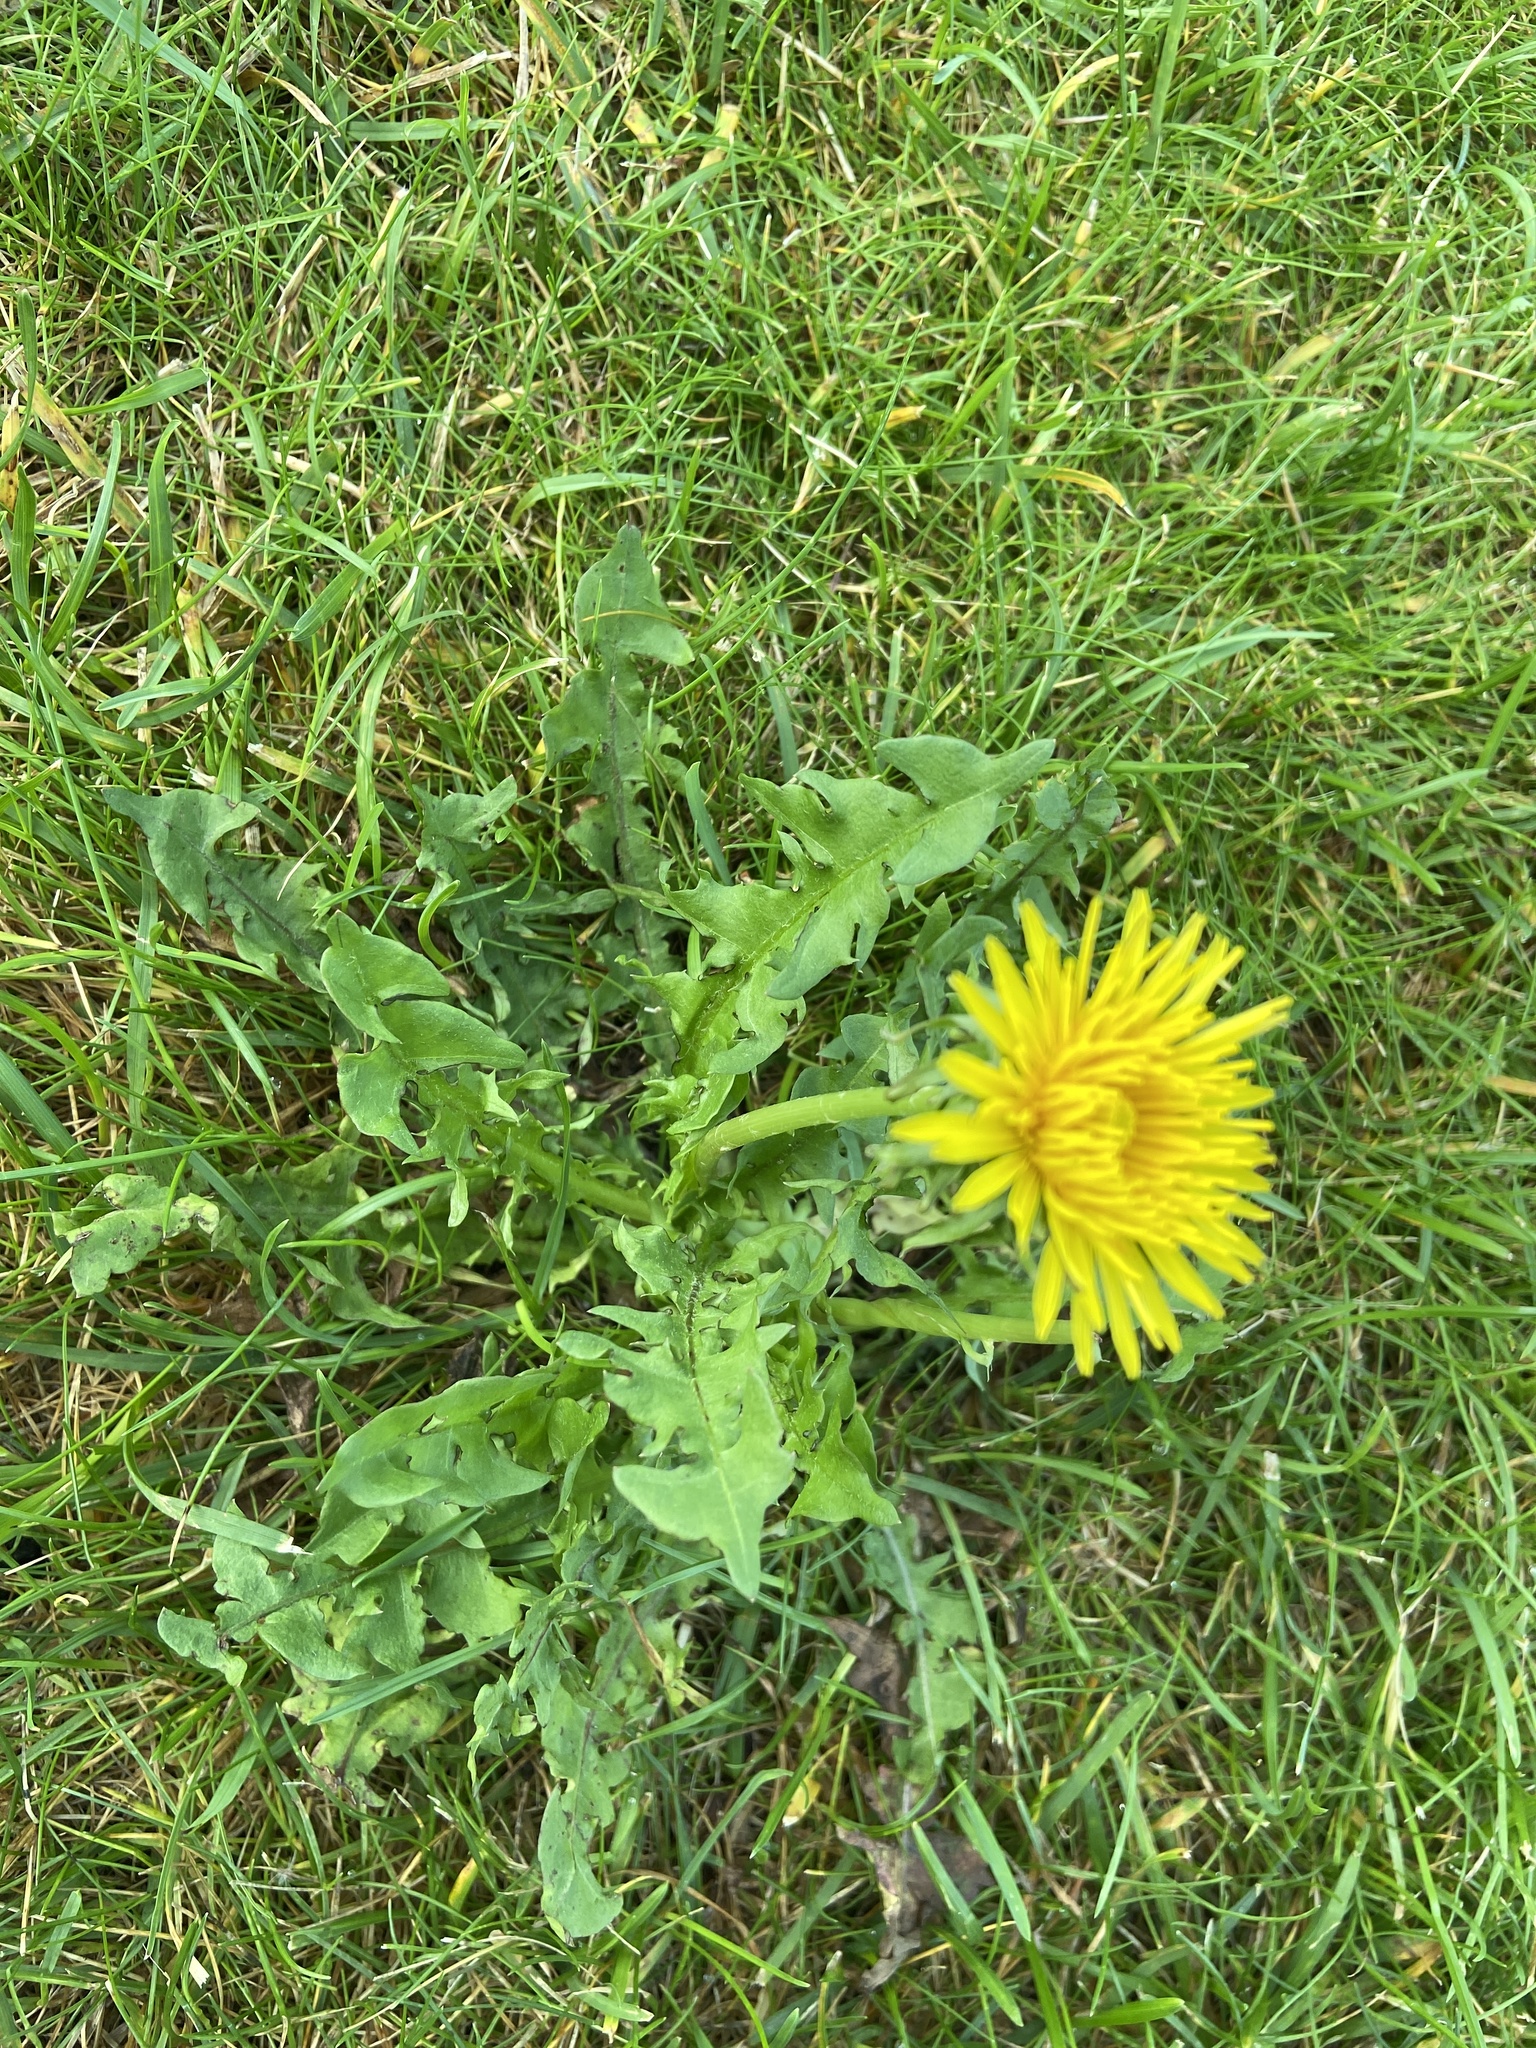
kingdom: Plantae
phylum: Tracheophyta
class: Magnoliopsida
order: Asterales
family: Asteraceae
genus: Taraxacum
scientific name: Taraxacum officinale
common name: Common dandelion
